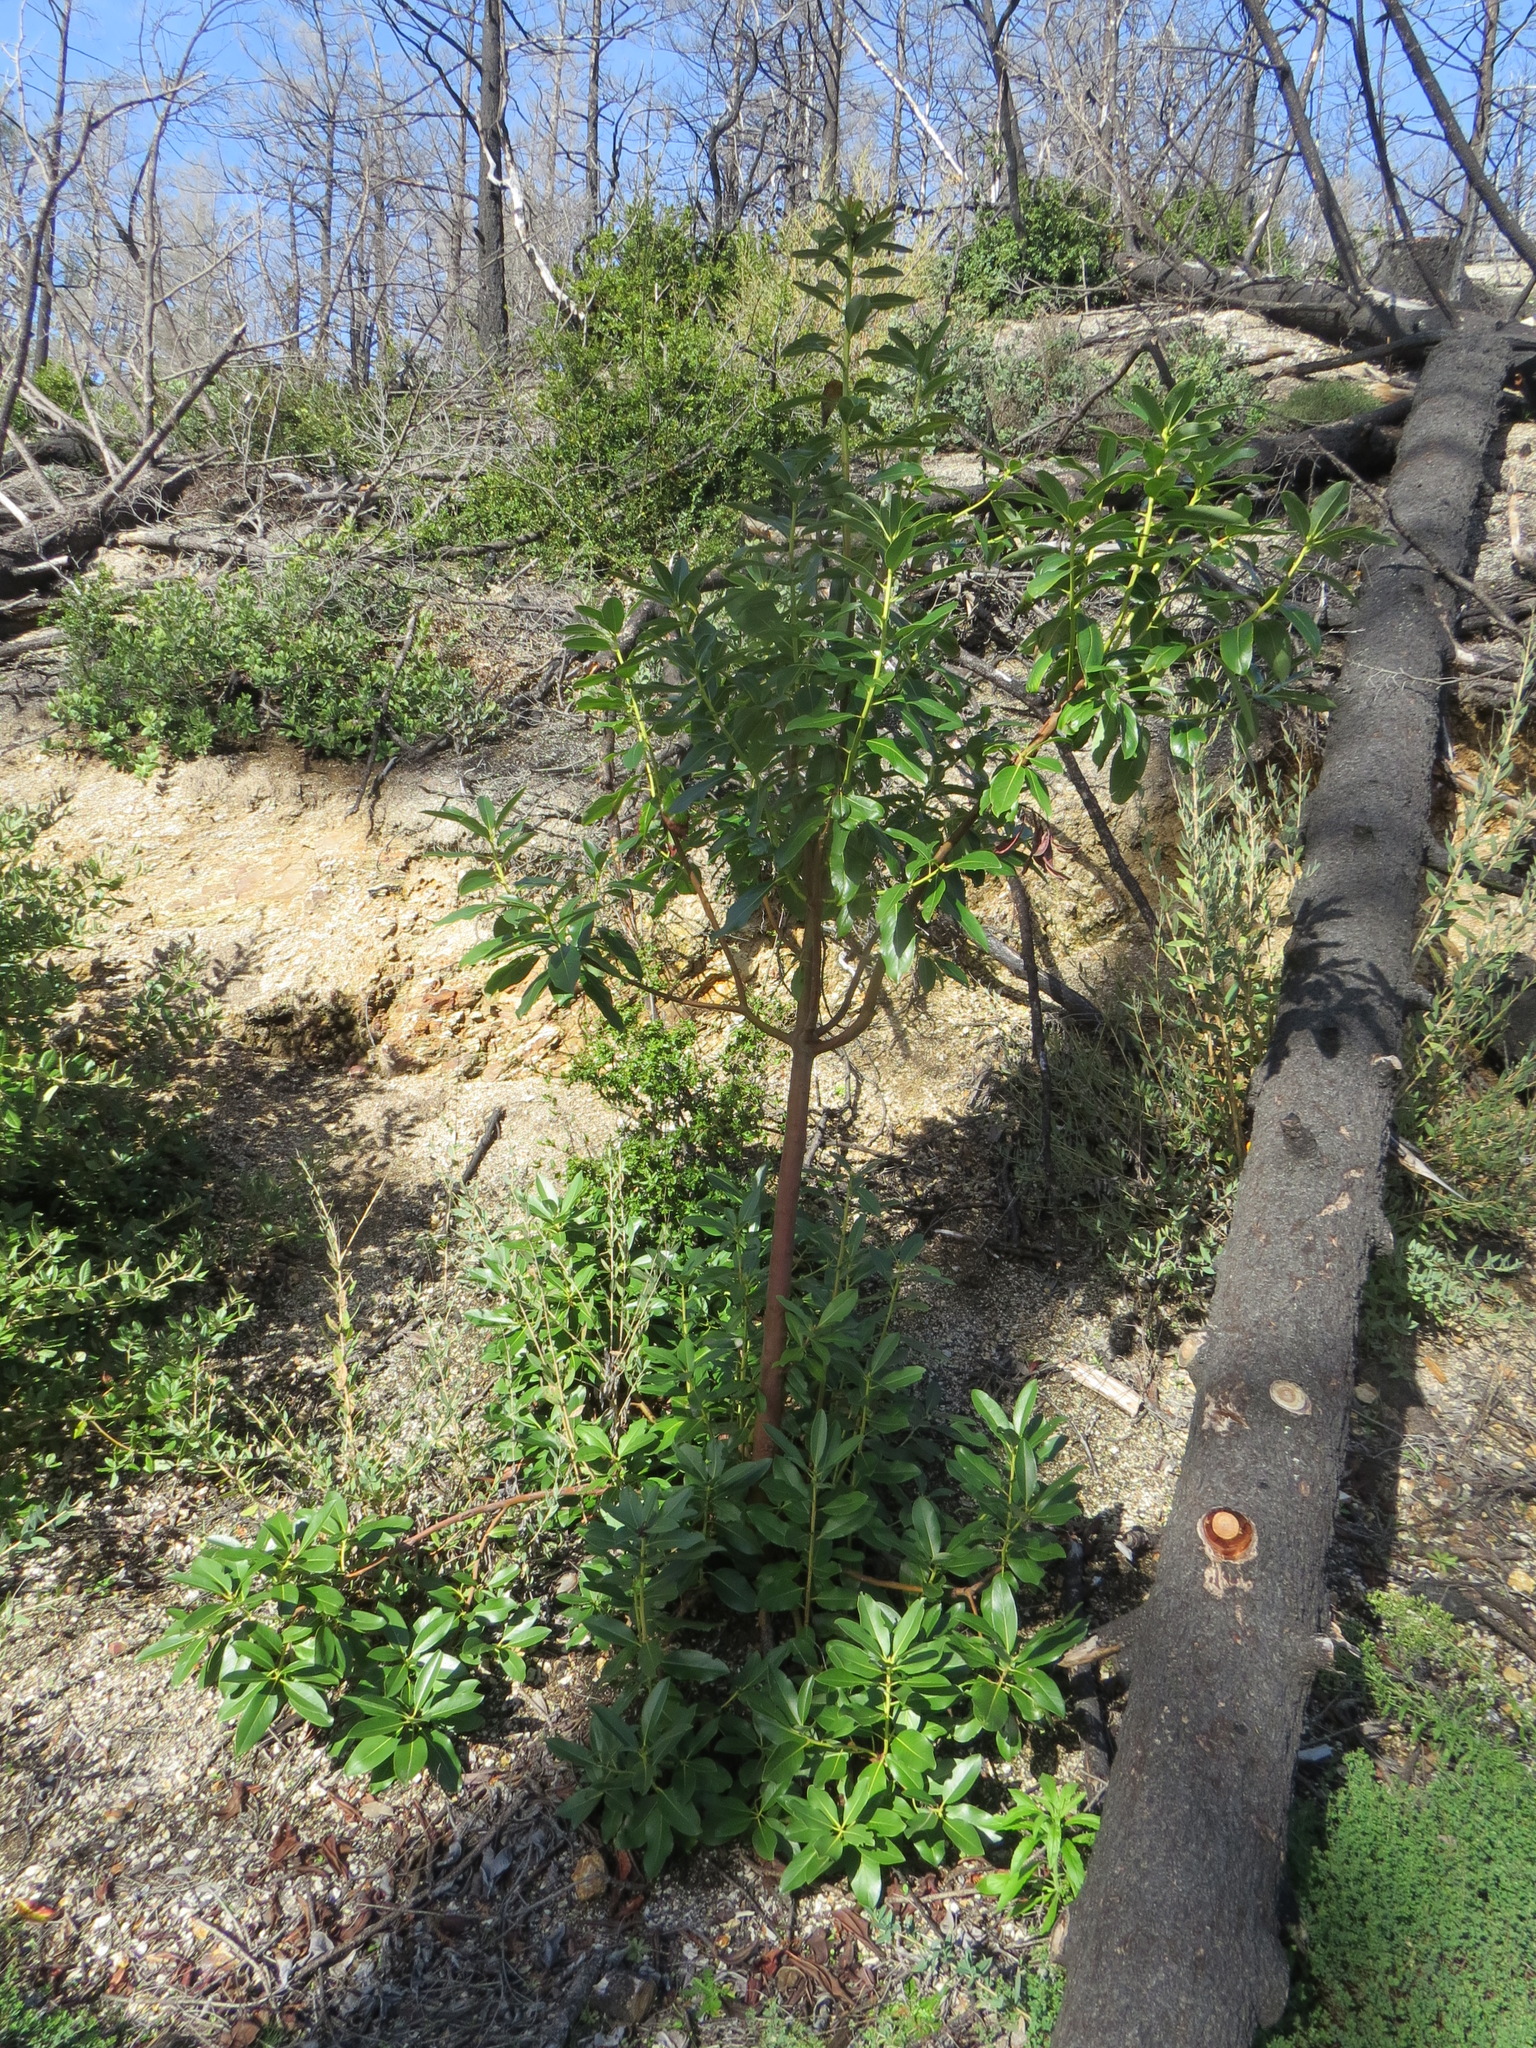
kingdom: Plantae
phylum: Tracheophyta
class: Magnoliopsida
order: Ericales
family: Ericaceae
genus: Arbutus
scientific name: Arbutus menziesii
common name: Pacific madrone
